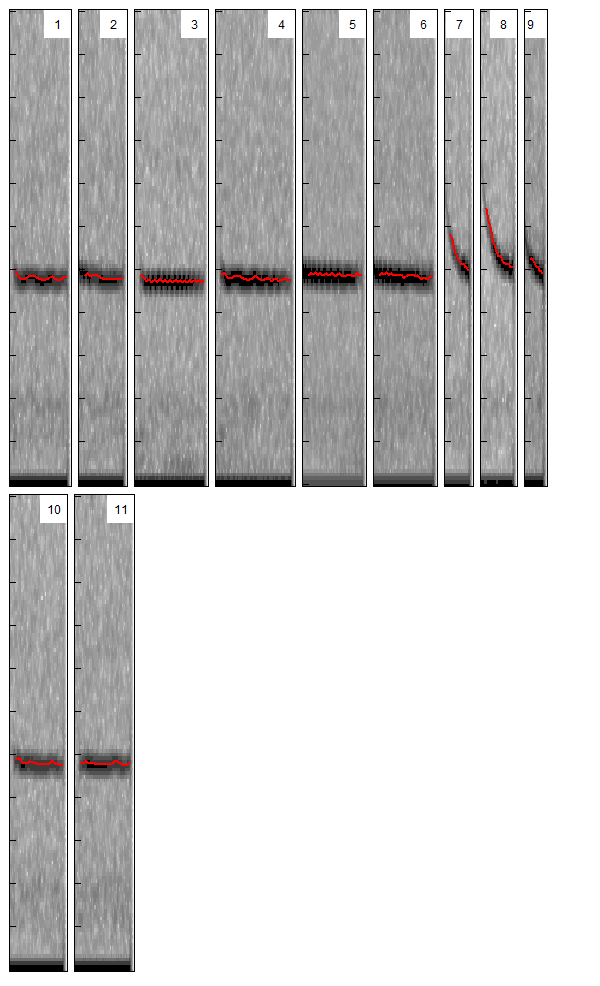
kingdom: Animalia
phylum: Chordata
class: Mammalia
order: Chiroptera
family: Vespertilionidae
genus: Pipistrellus
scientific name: Pipistrellus pygmaeus
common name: Soprano pipistrelle
